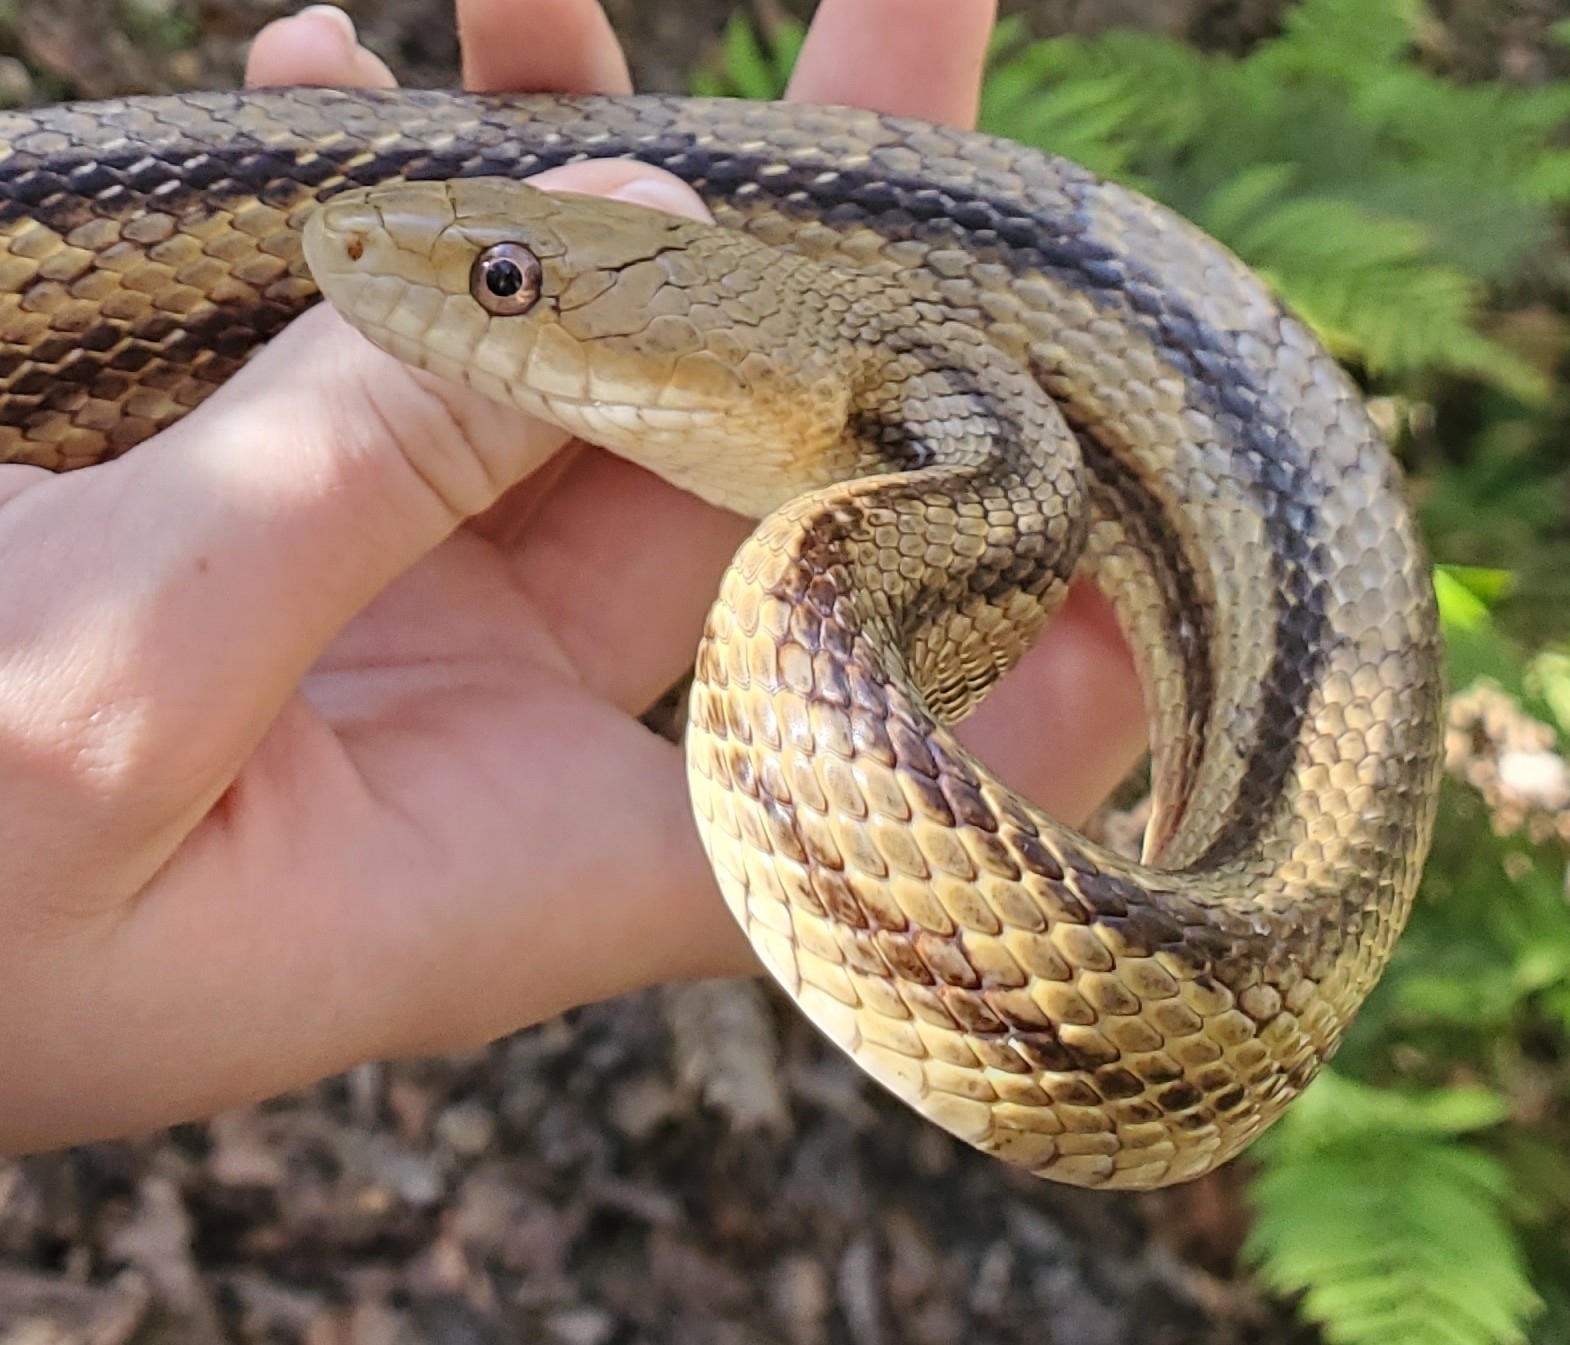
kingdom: Animalia
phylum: Chordata
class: Squamata
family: Colubridae
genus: Pantherophis
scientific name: Pantherophis alleghaniensis
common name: Eastern rat snake
